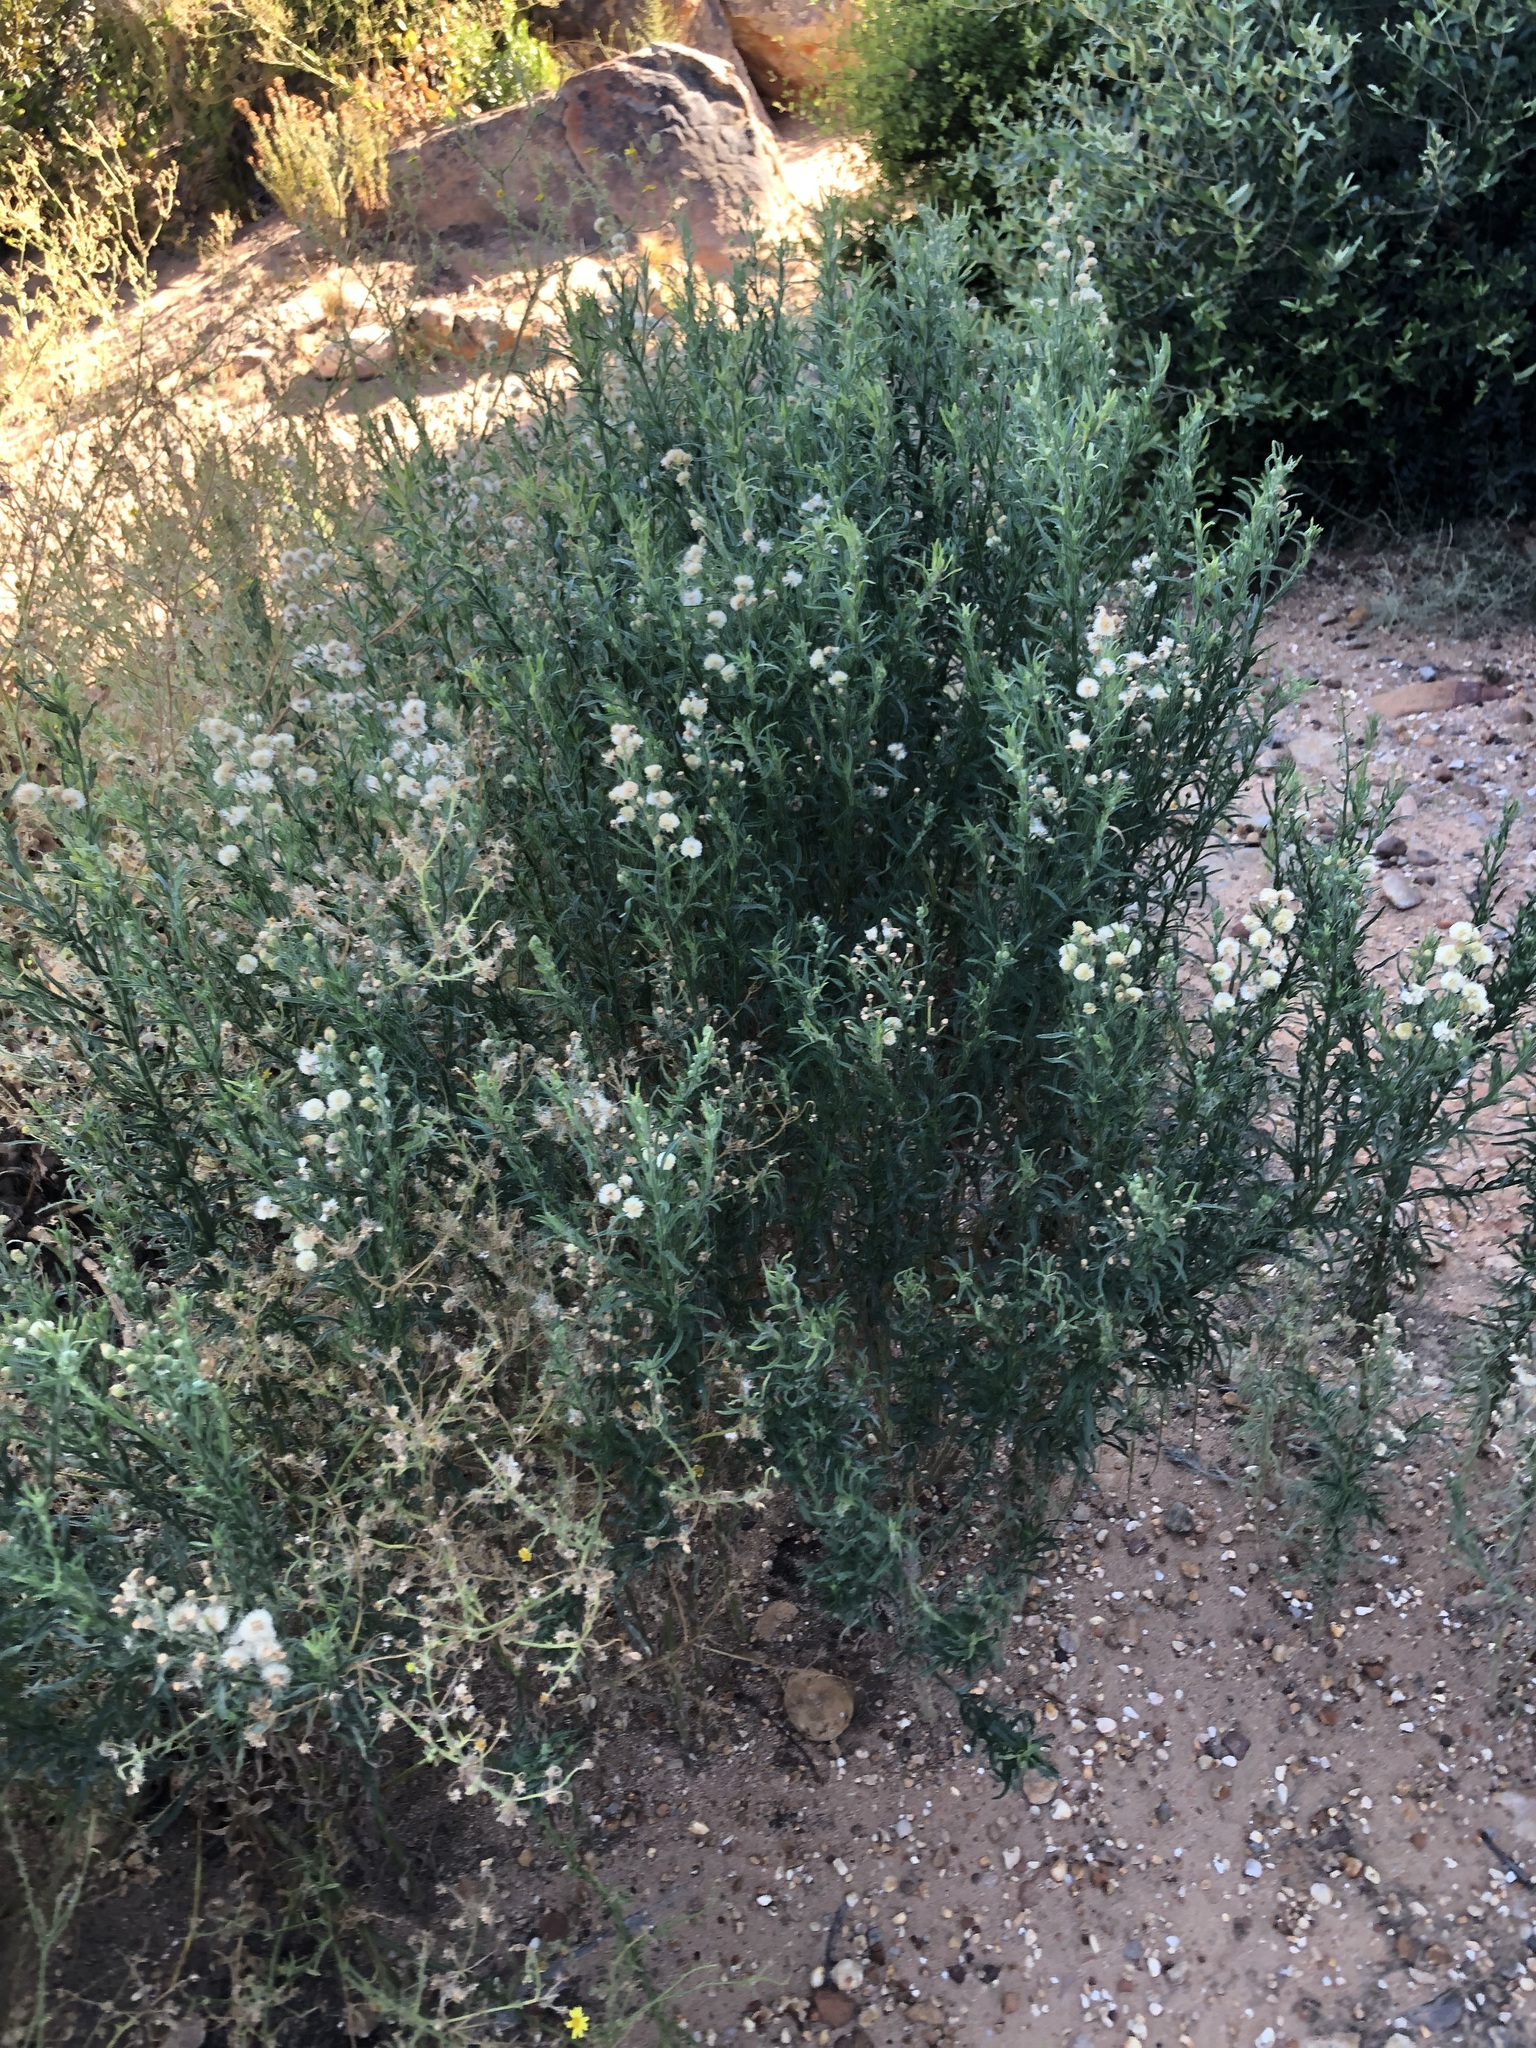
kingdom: Plantae
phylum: Tracheophyta
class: Magnoliopsida
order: Asterales
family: Asteraceae
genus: Erigeron
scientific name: Erigeron bonariensis
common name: Argentine fleabane
